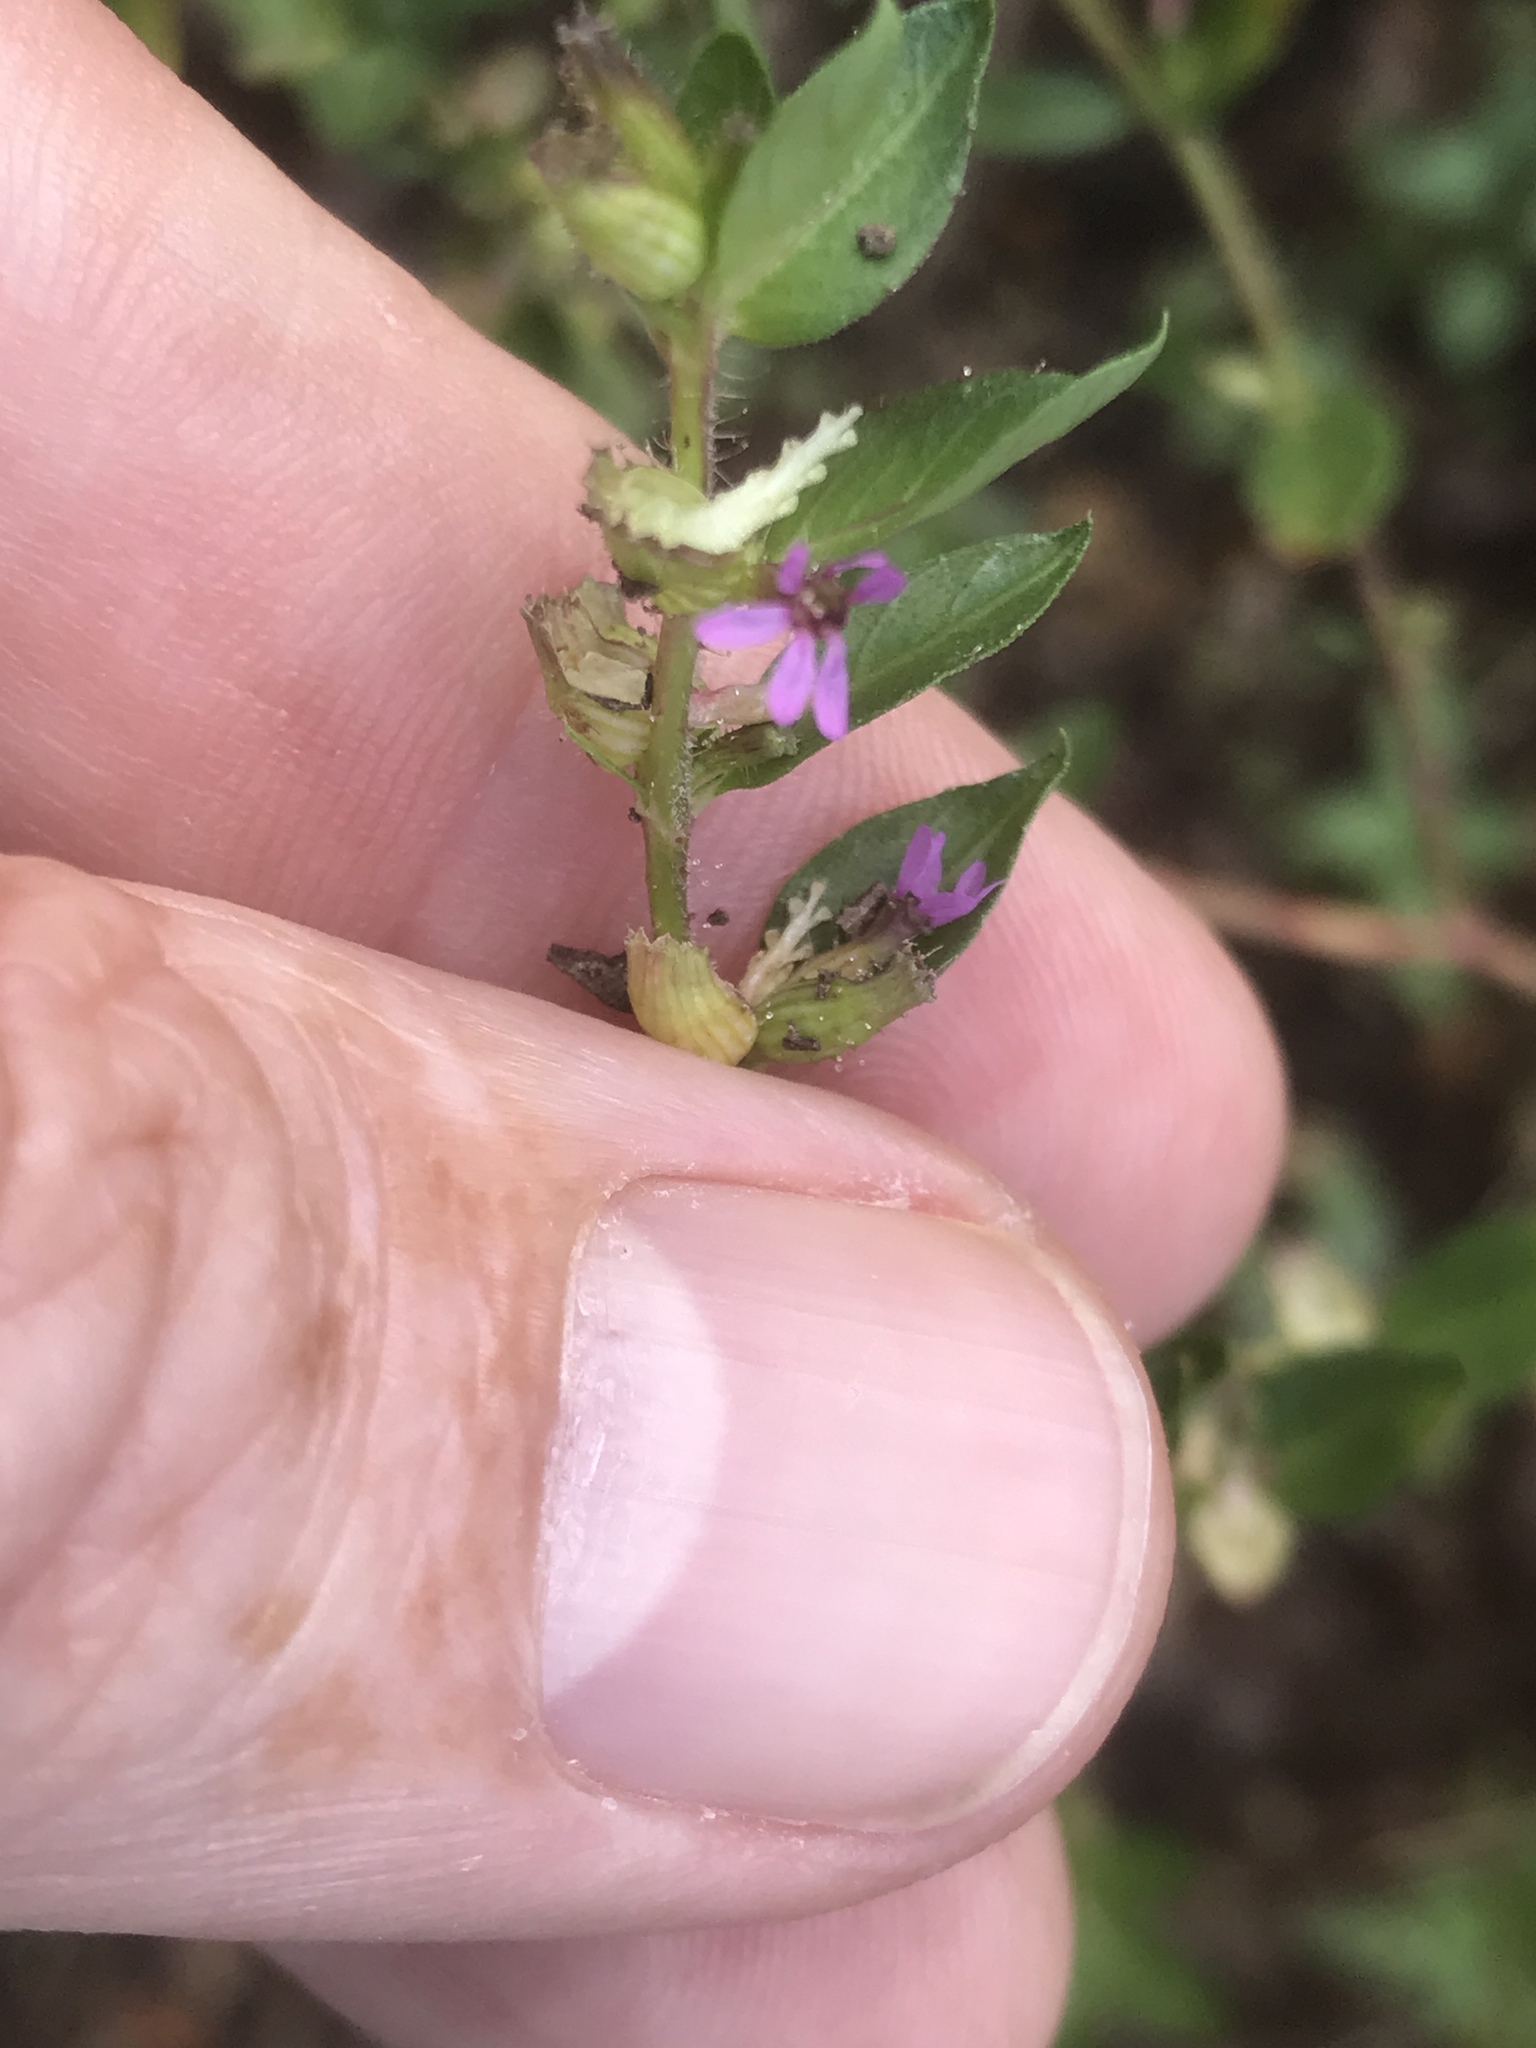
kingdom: Plantae
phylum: Tracheophyta
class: Magnoliopsida
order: Myrtales
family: Lythraceae
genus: Cuphea
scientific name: Cuphea carthagenensis
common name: Colombian waxweed
